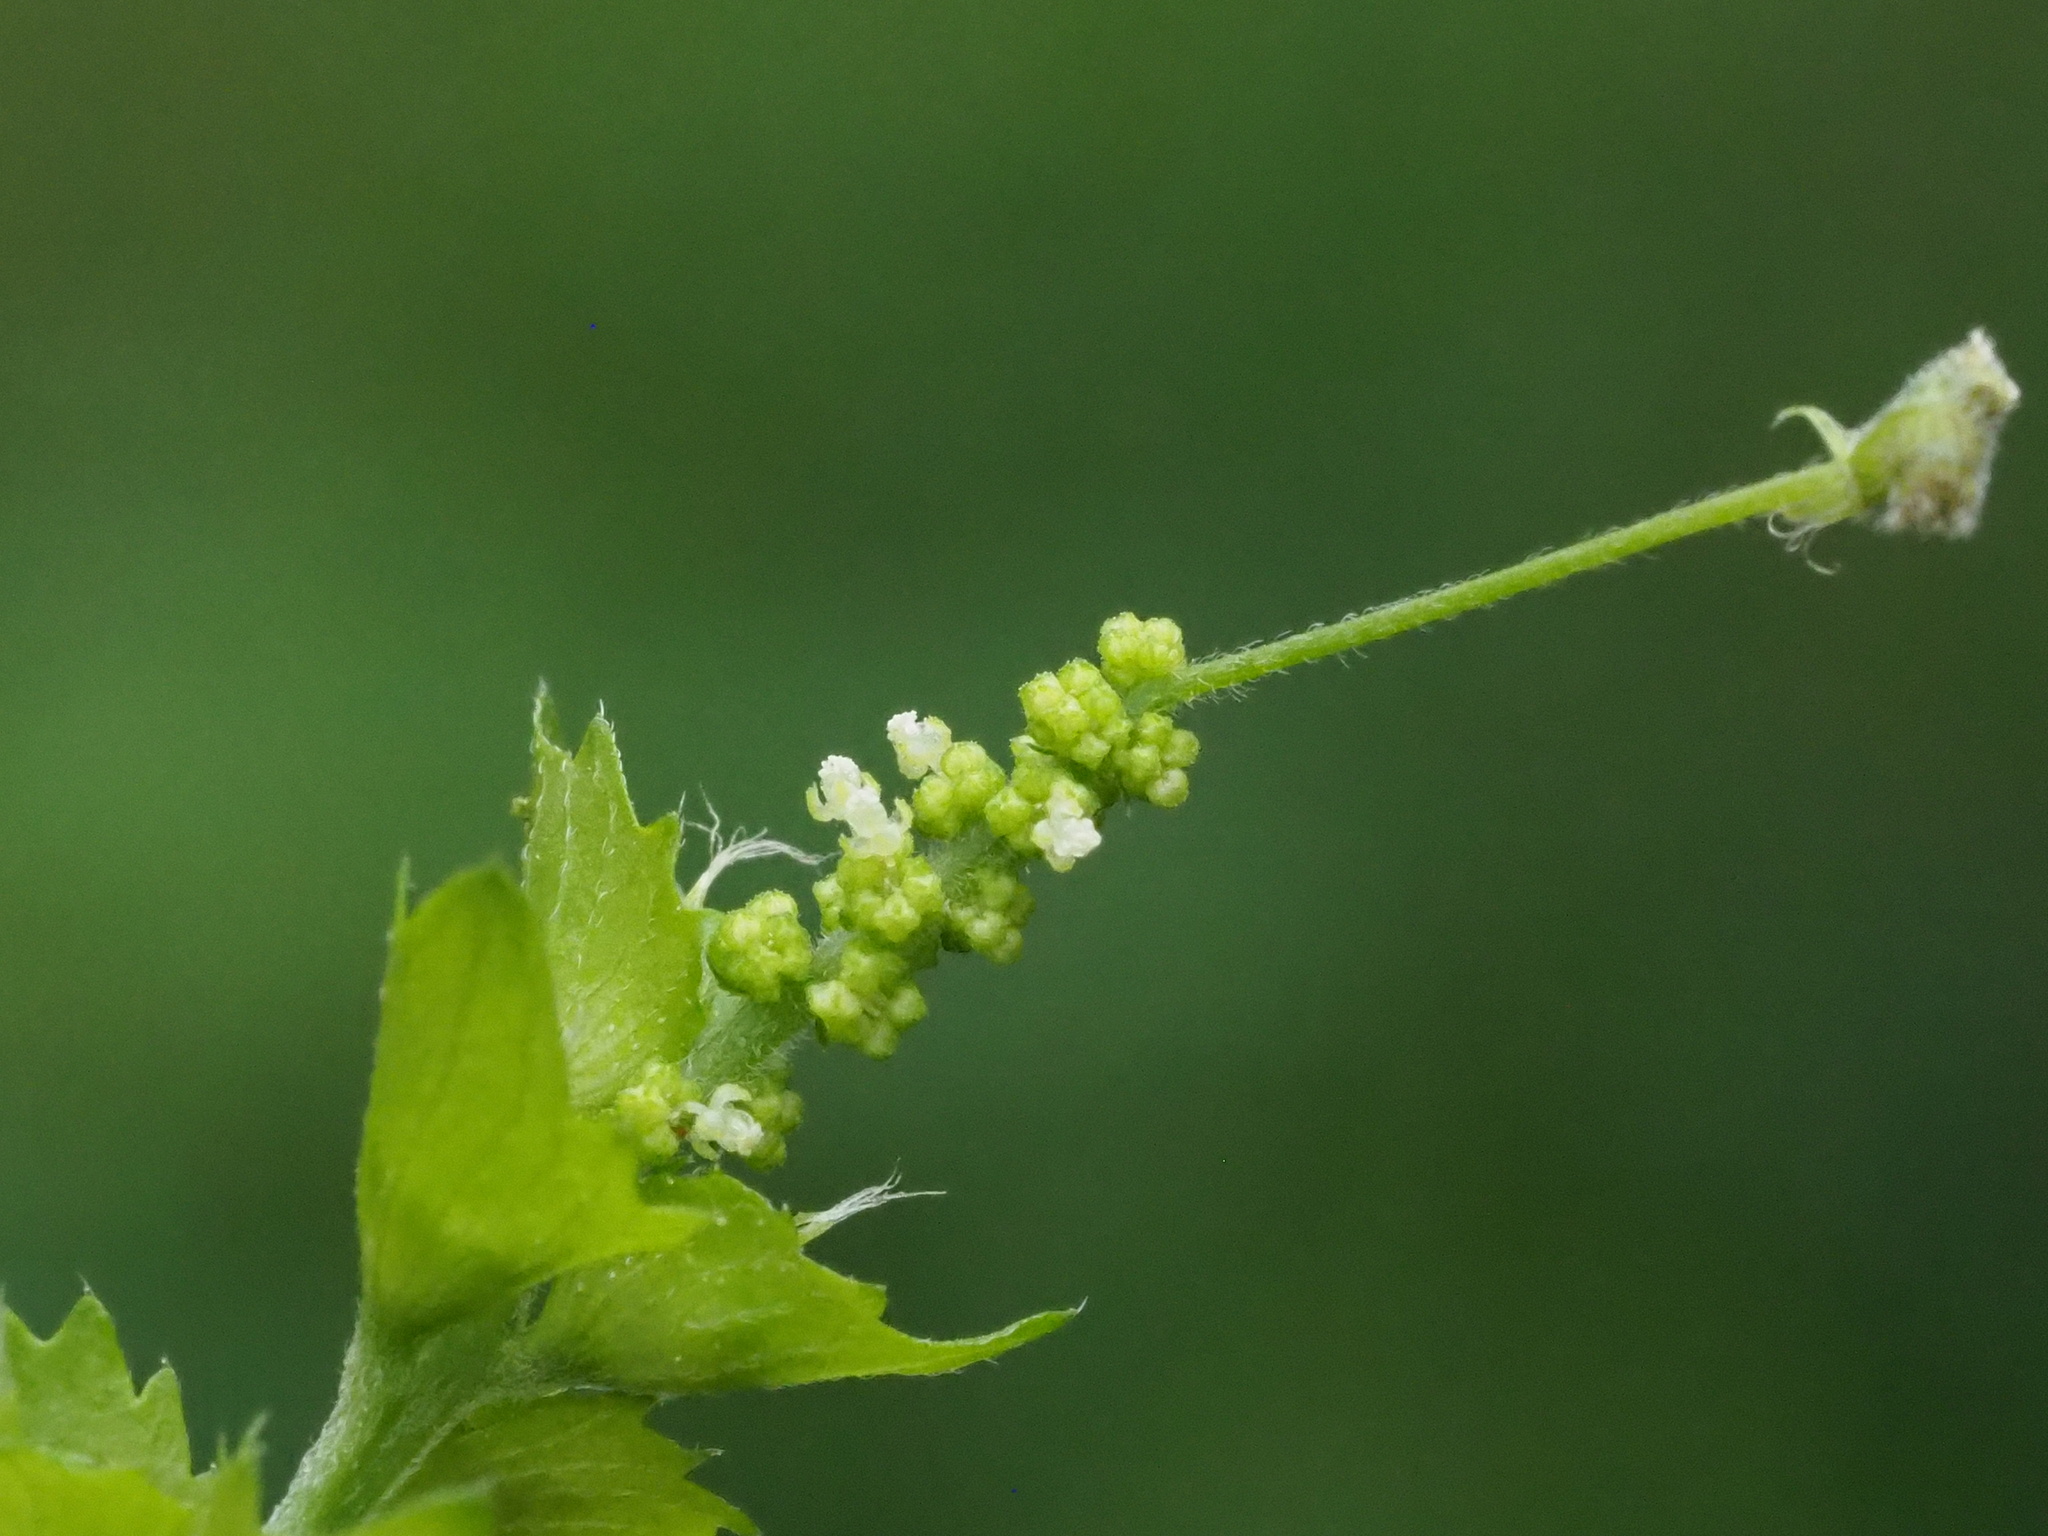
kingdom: Plantae
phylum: Tracheophyta
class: Magnoliopsida
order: Malpighiales
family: Euphorbiaceae
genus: Acalypha
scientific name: Acalypha indica
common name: Indian acalypha
